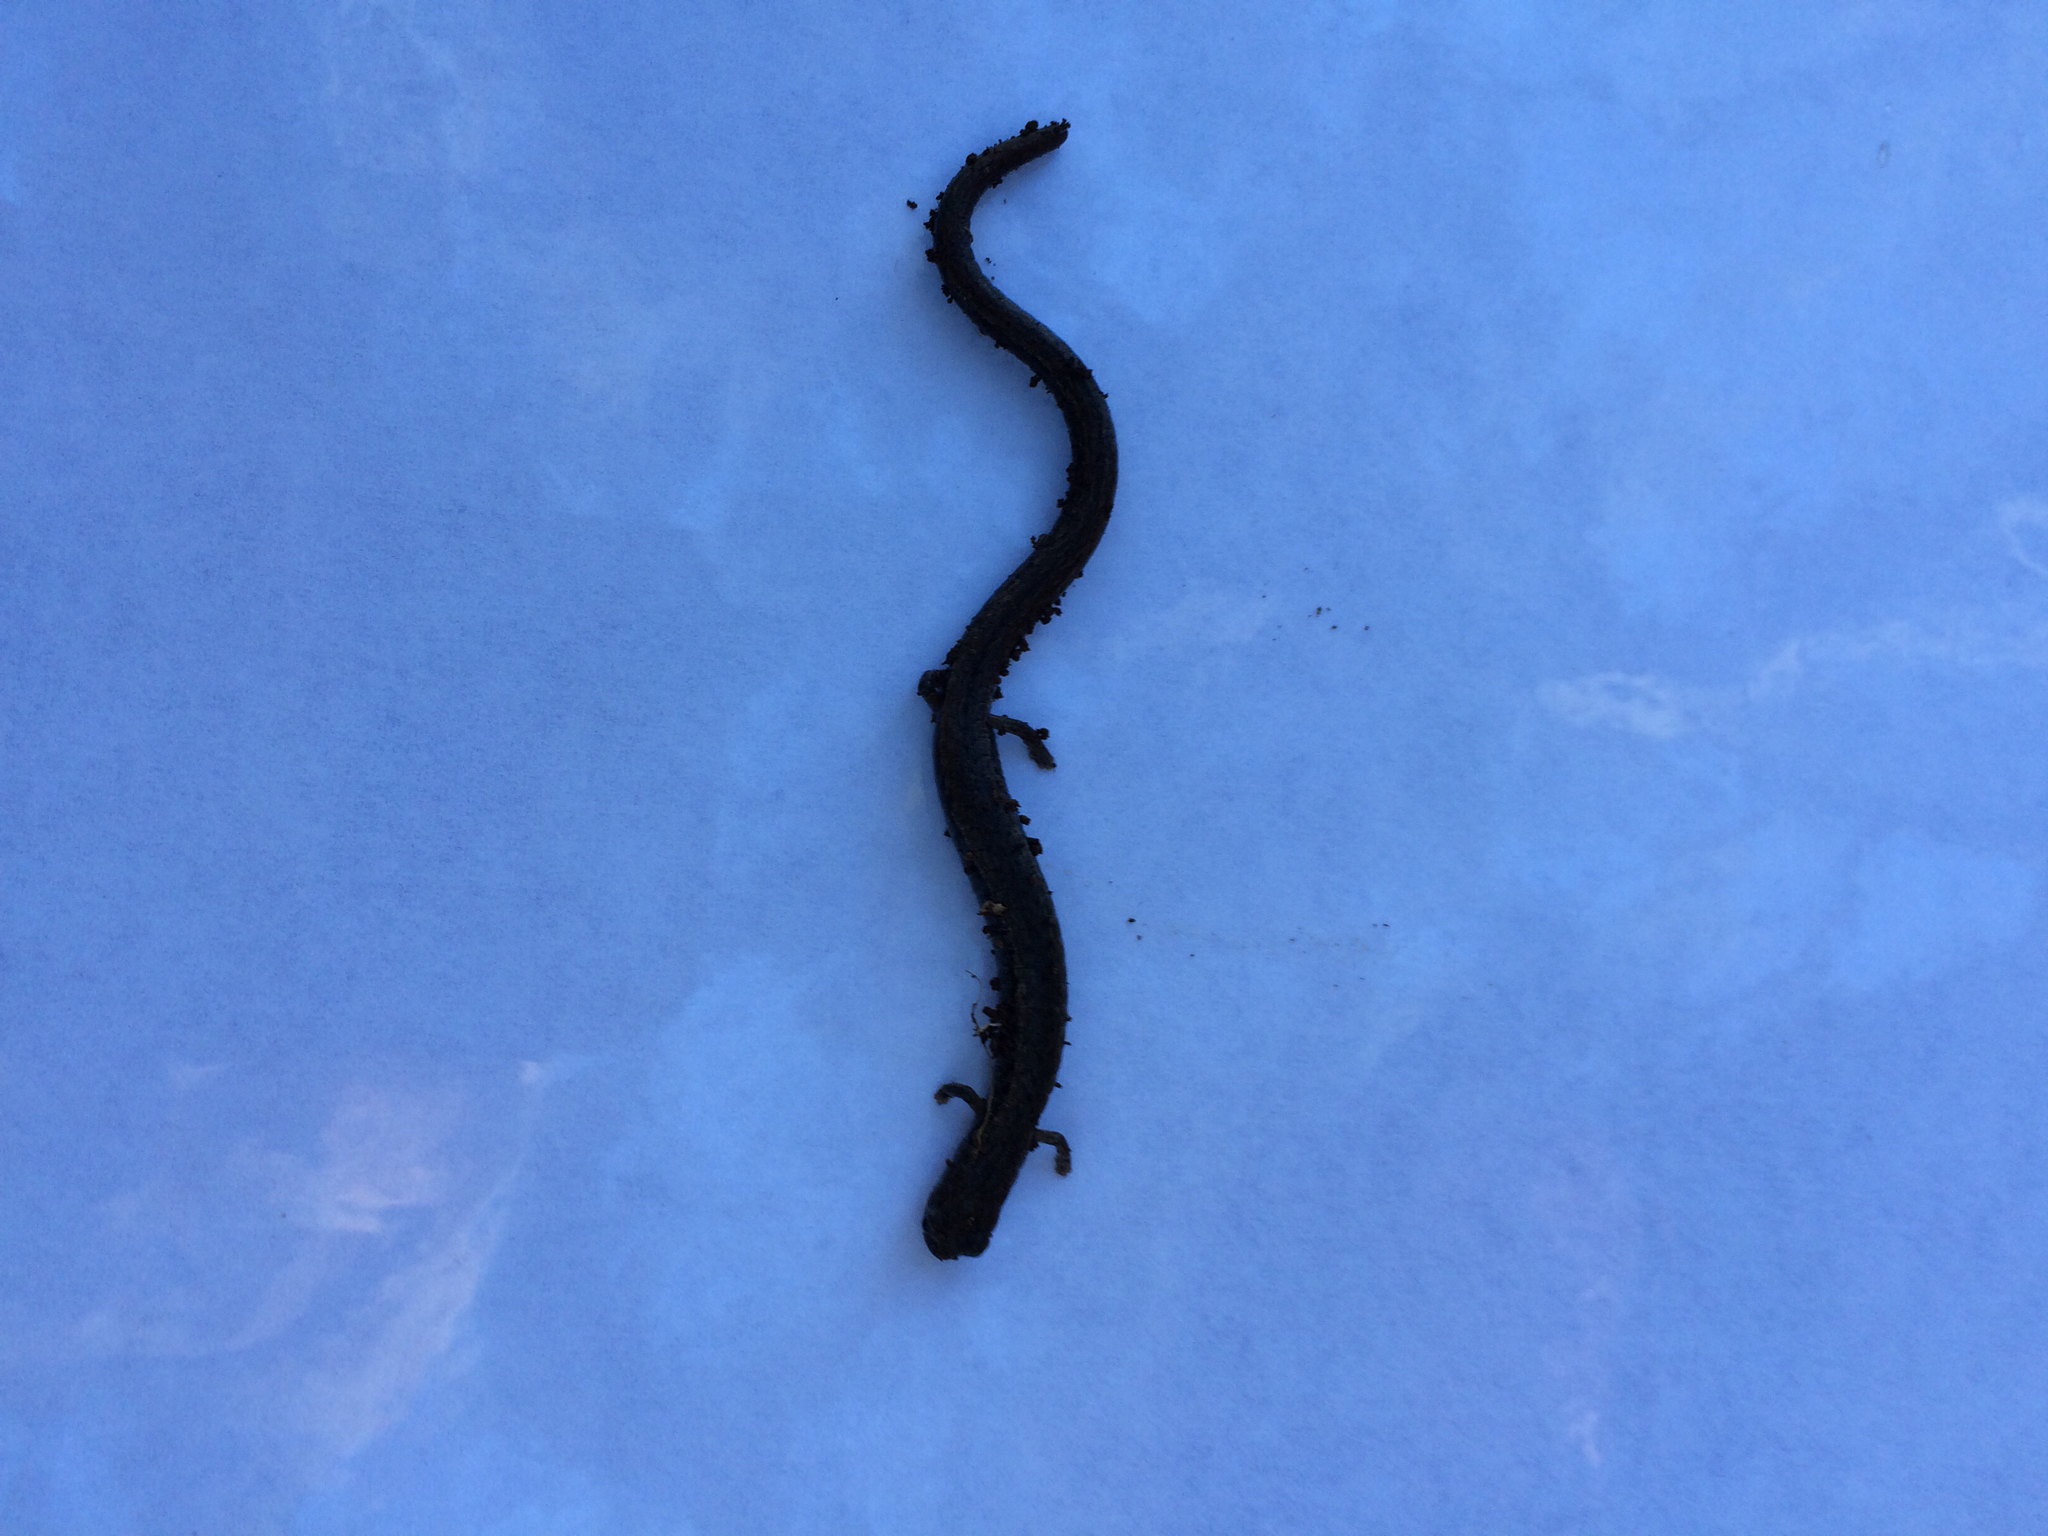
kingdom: Animalia
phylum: Chordata
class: Amphibia
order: Caudata
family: Plethodontidae
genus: Batrachoseps
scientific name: Batrachoseps attenuatus
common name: California slender salamander
